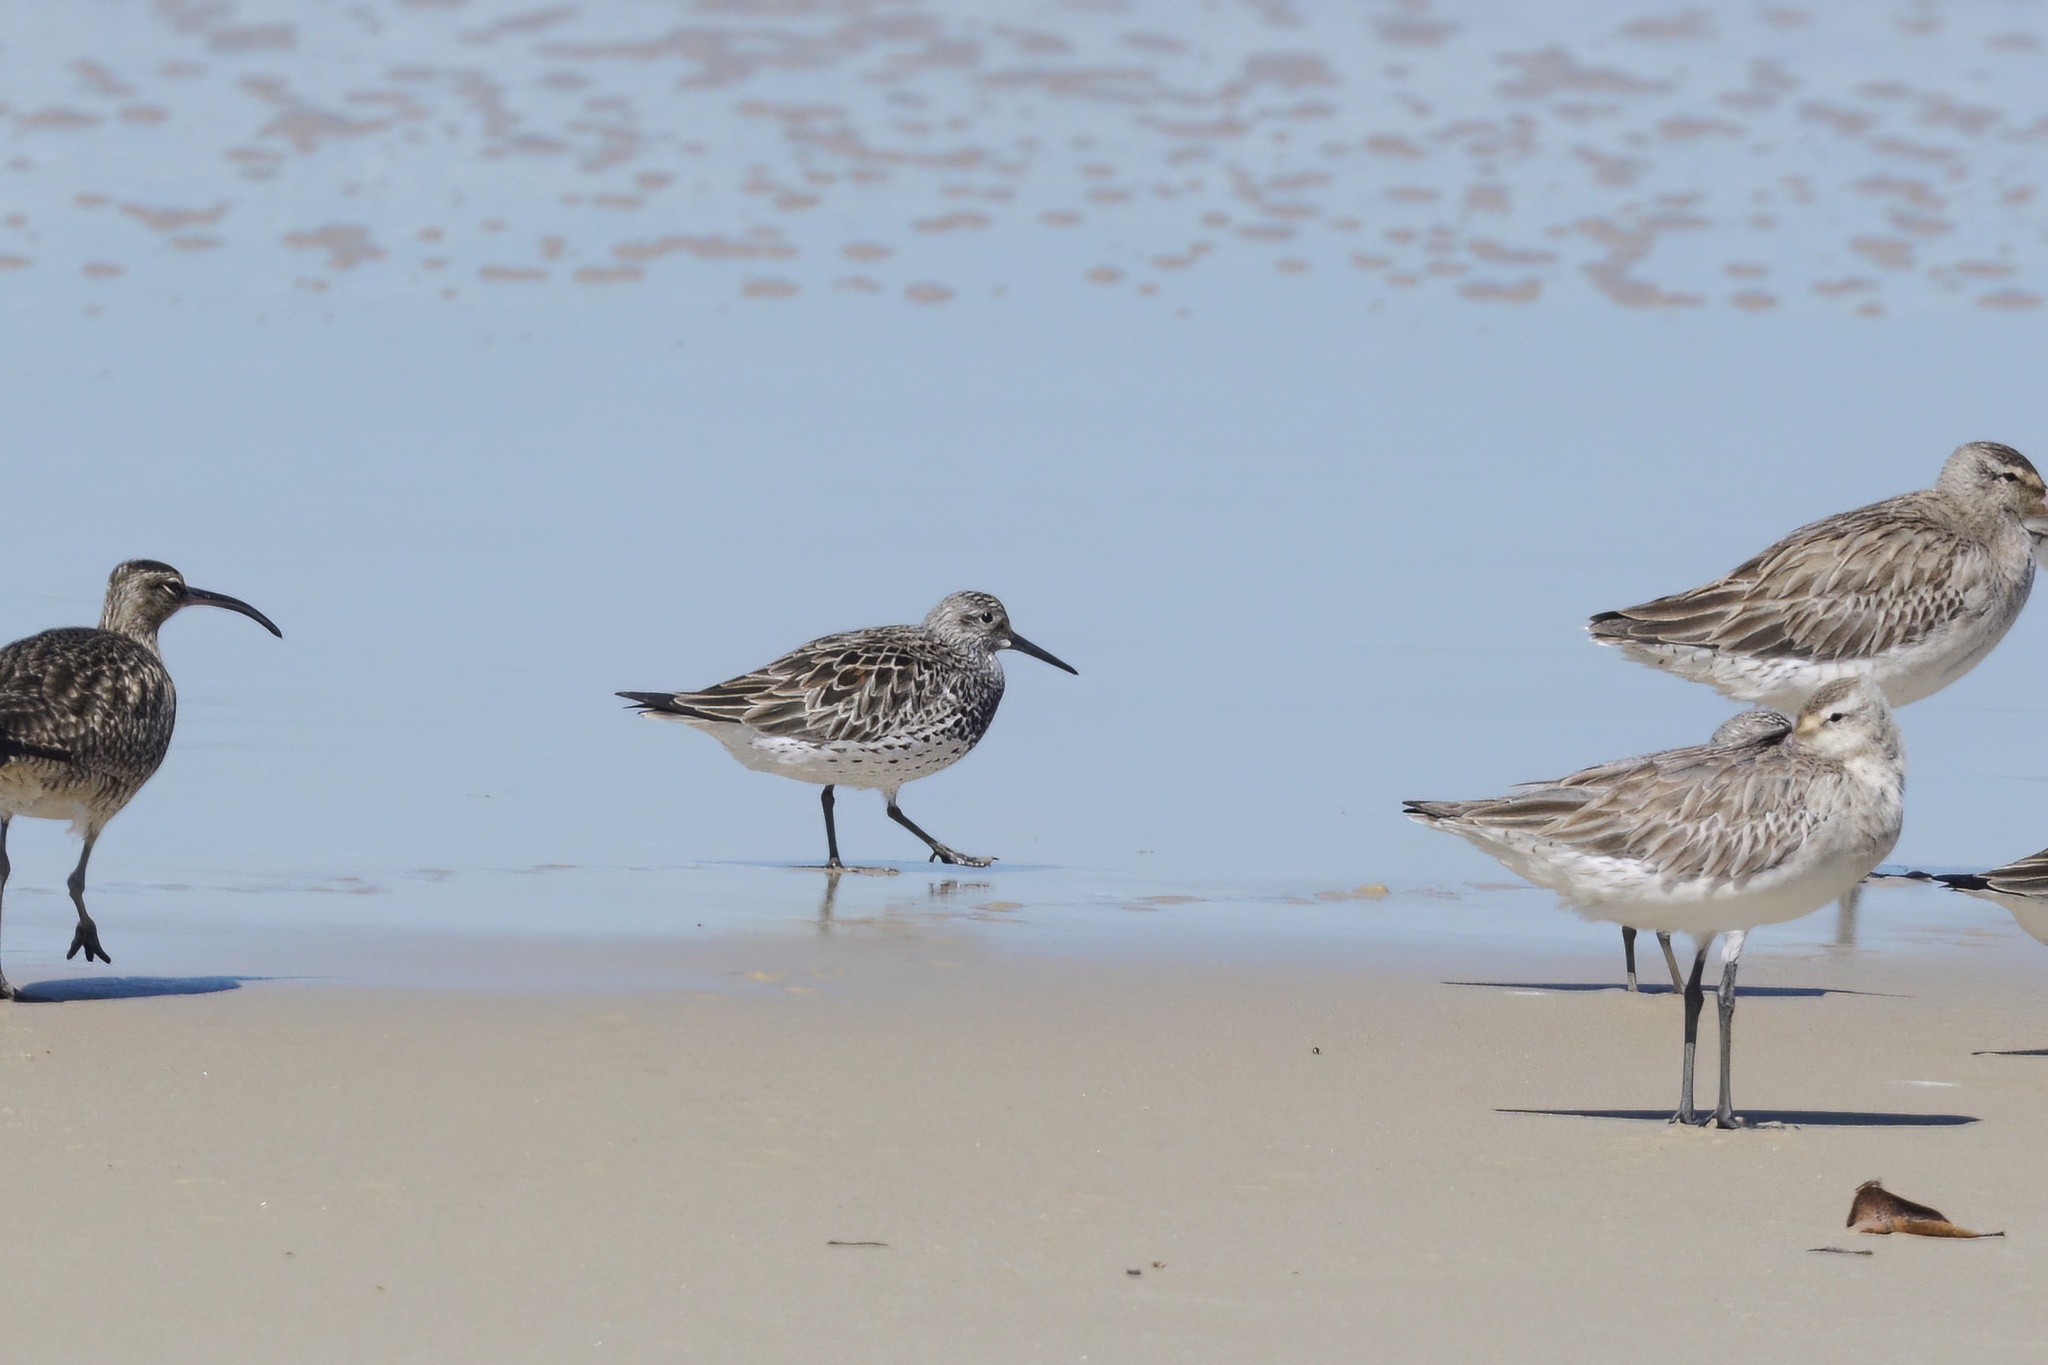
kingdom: Animalia
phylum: Chordata
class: Aves
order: Charadriiformes
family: Scolopacidae
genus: Calidris
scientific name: Calidris tenuirostris
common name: Great knot
